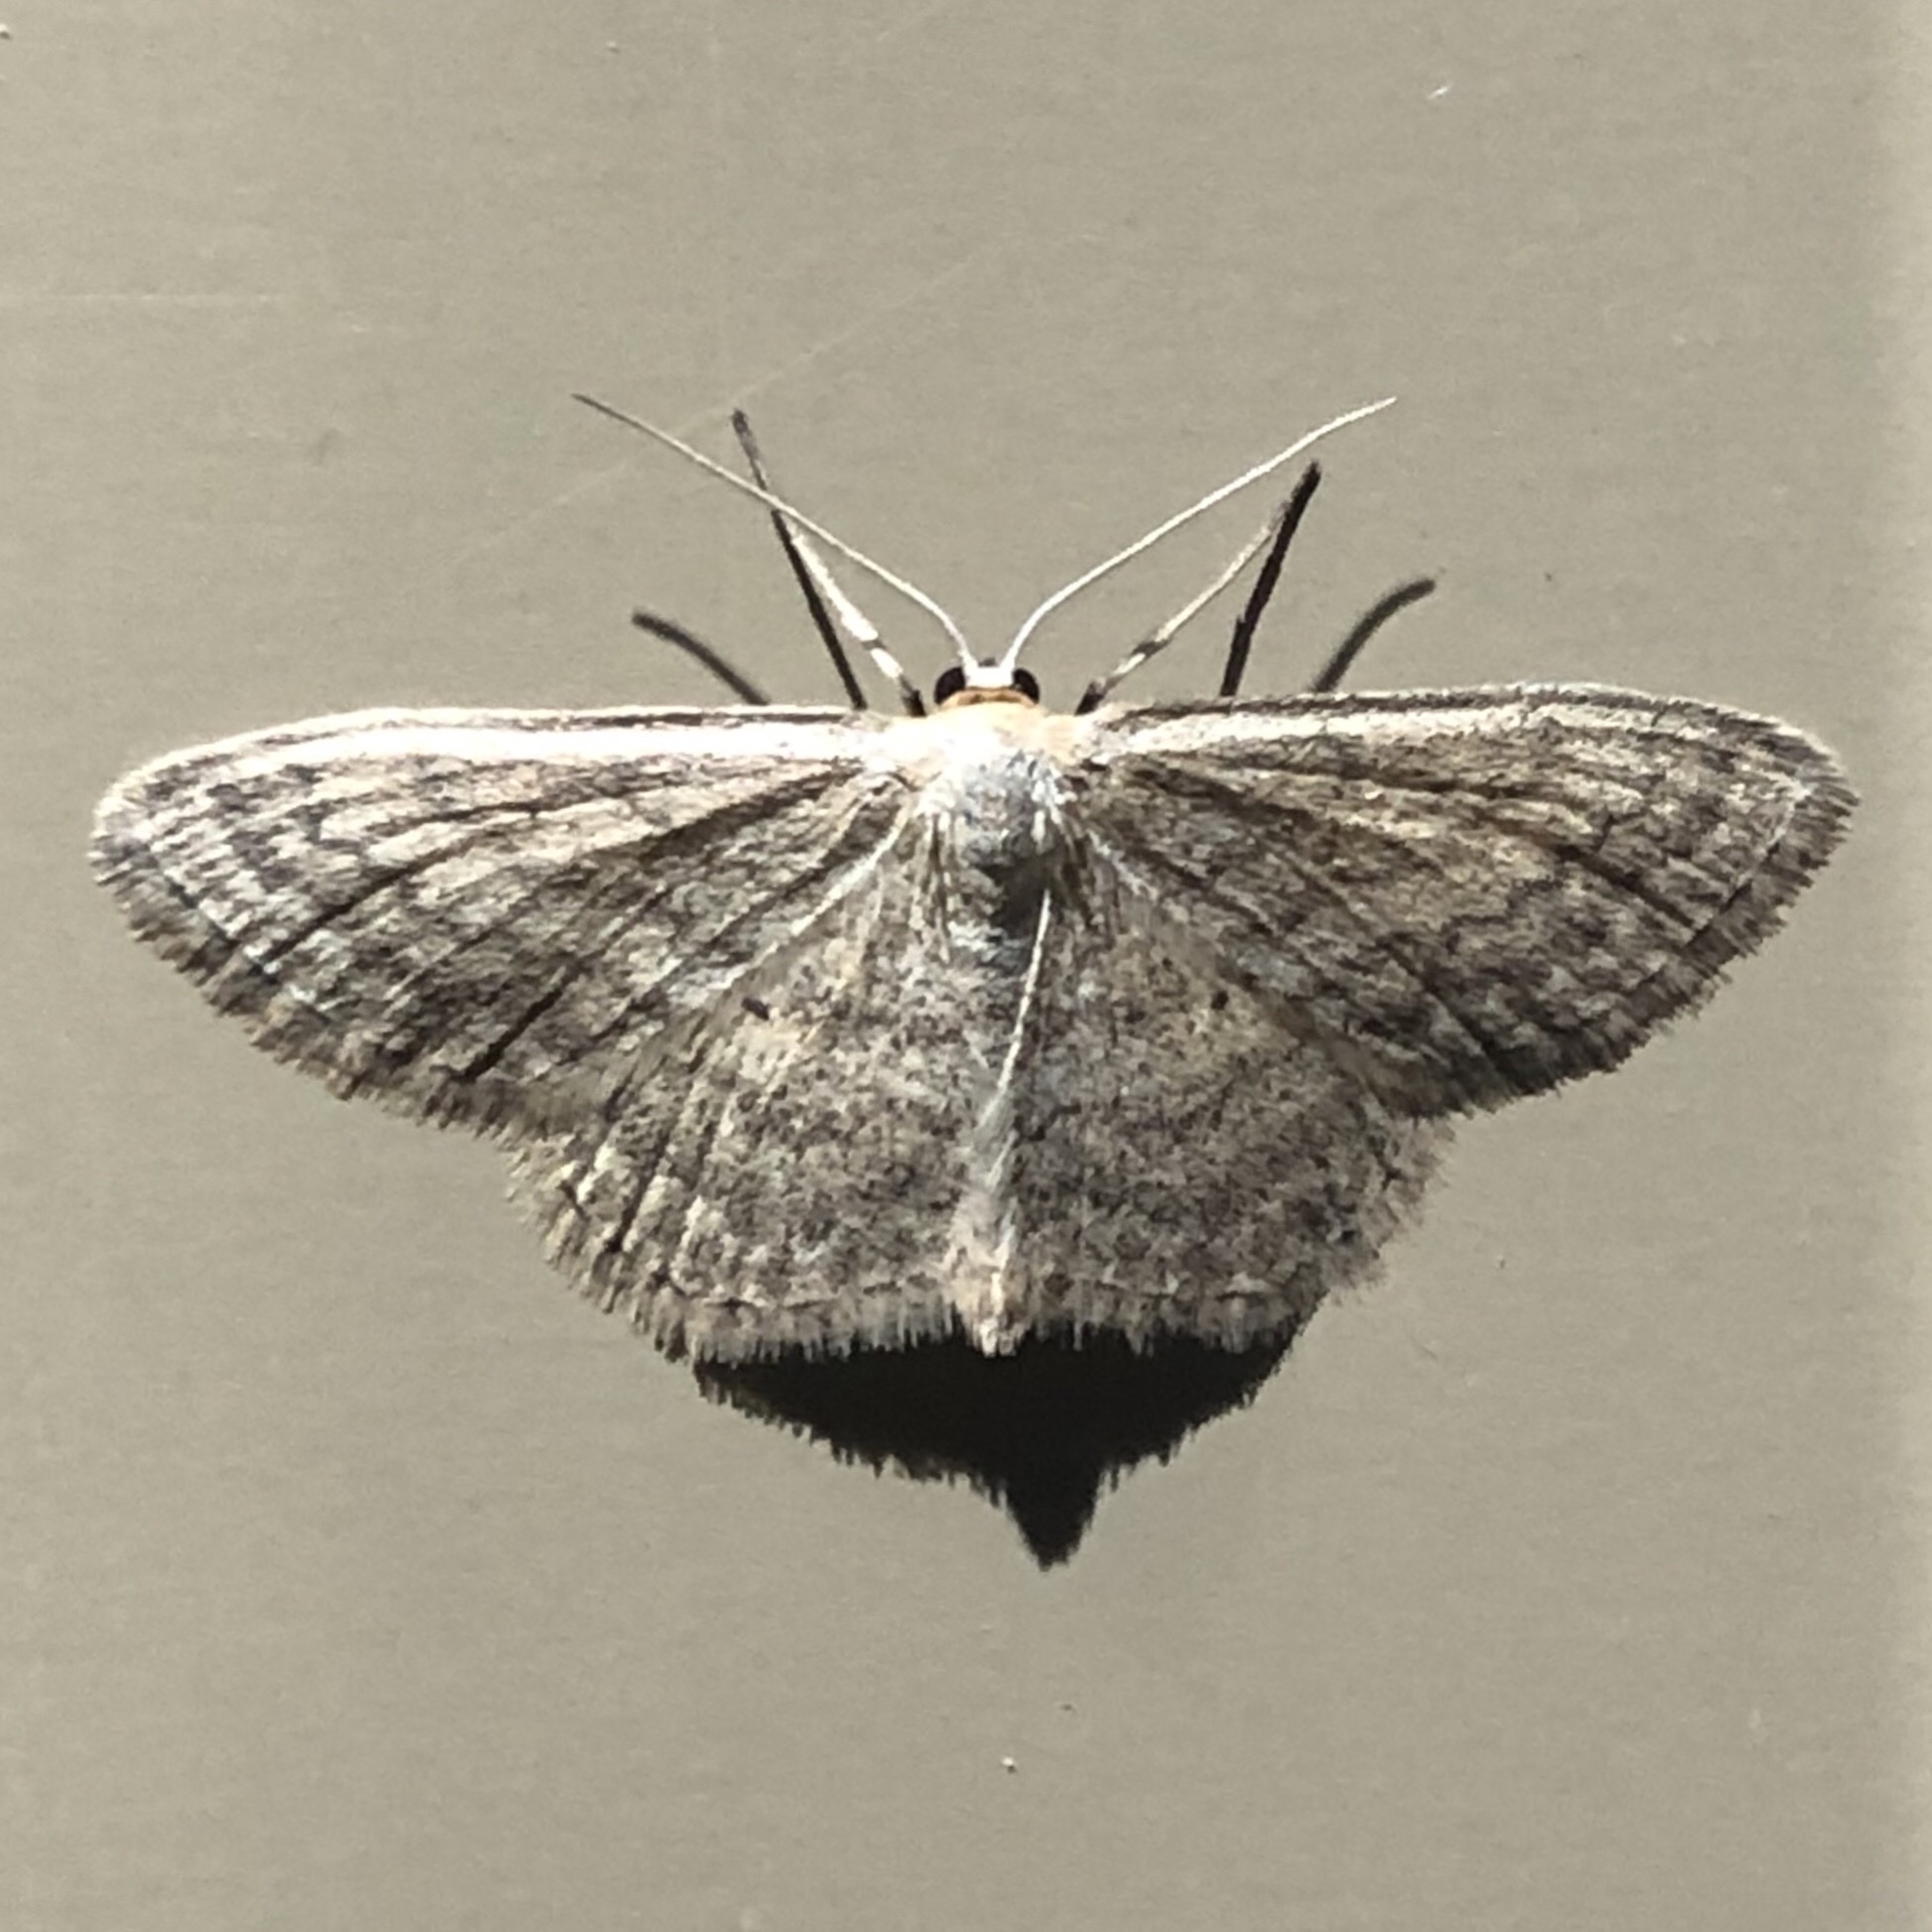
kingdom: Animalia
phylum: Arthropoda
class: Insecta
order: Lepidoptera
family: Geometridae
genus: Scopula
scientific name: Scopula inductata
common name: Soft-lined wave
